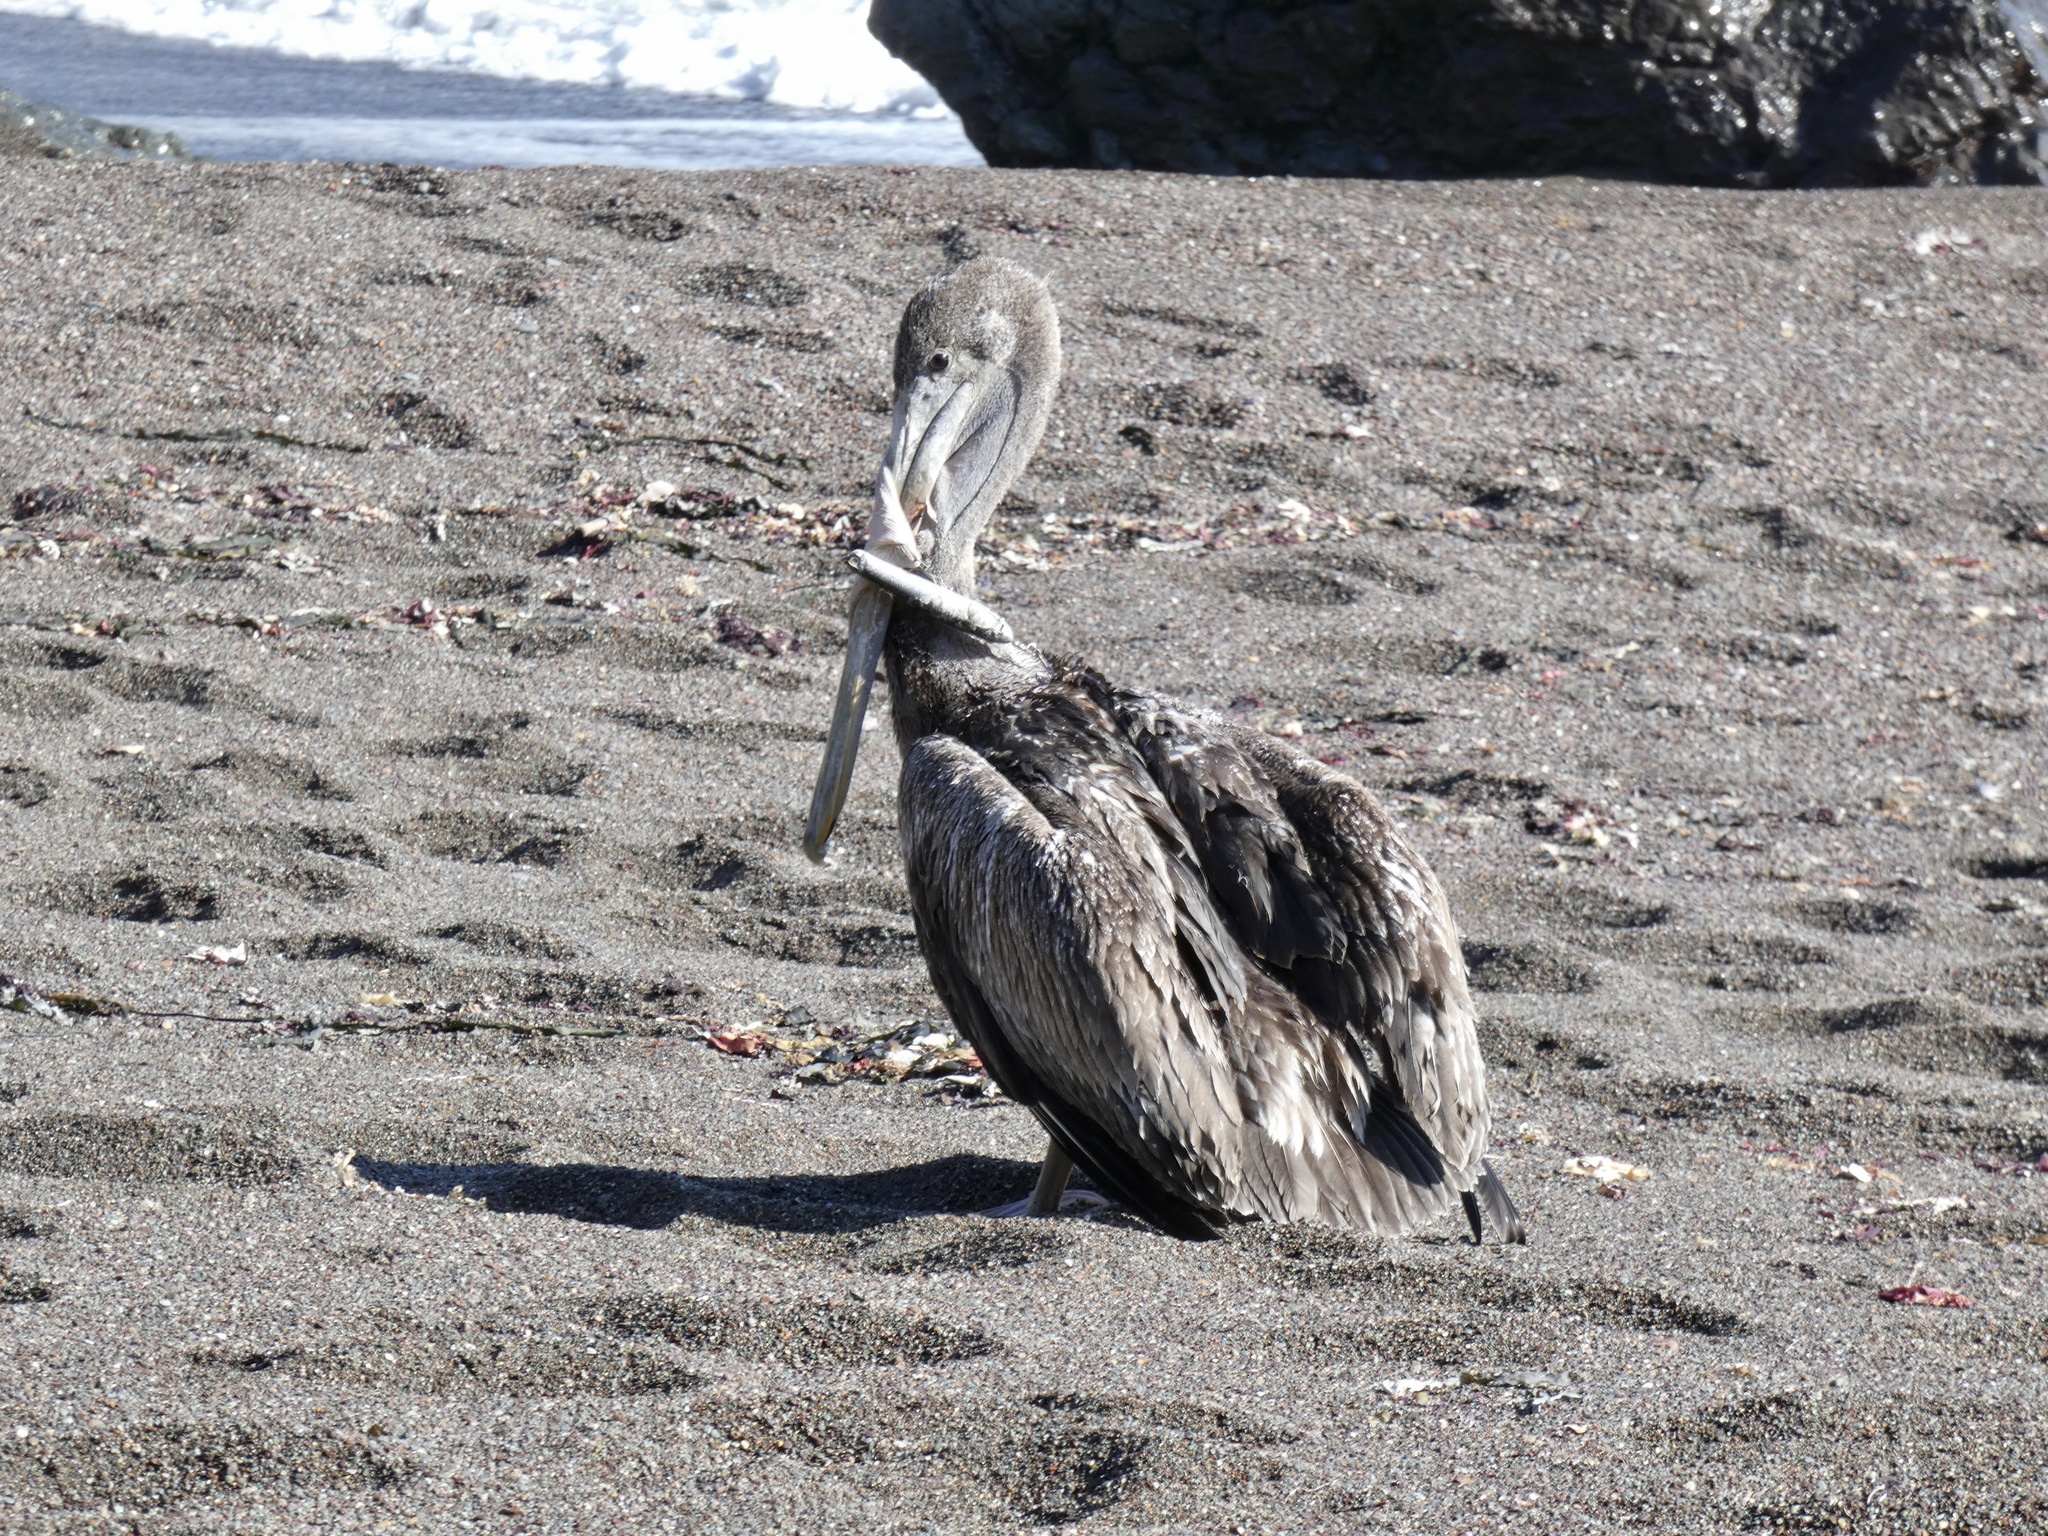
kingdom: Animalia
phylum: Chordata
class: Aves
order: Pelecaniformes
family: Pelecanidae
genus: Pelecanus
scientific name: Pelecanus occidentalis
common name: Brown pelican
